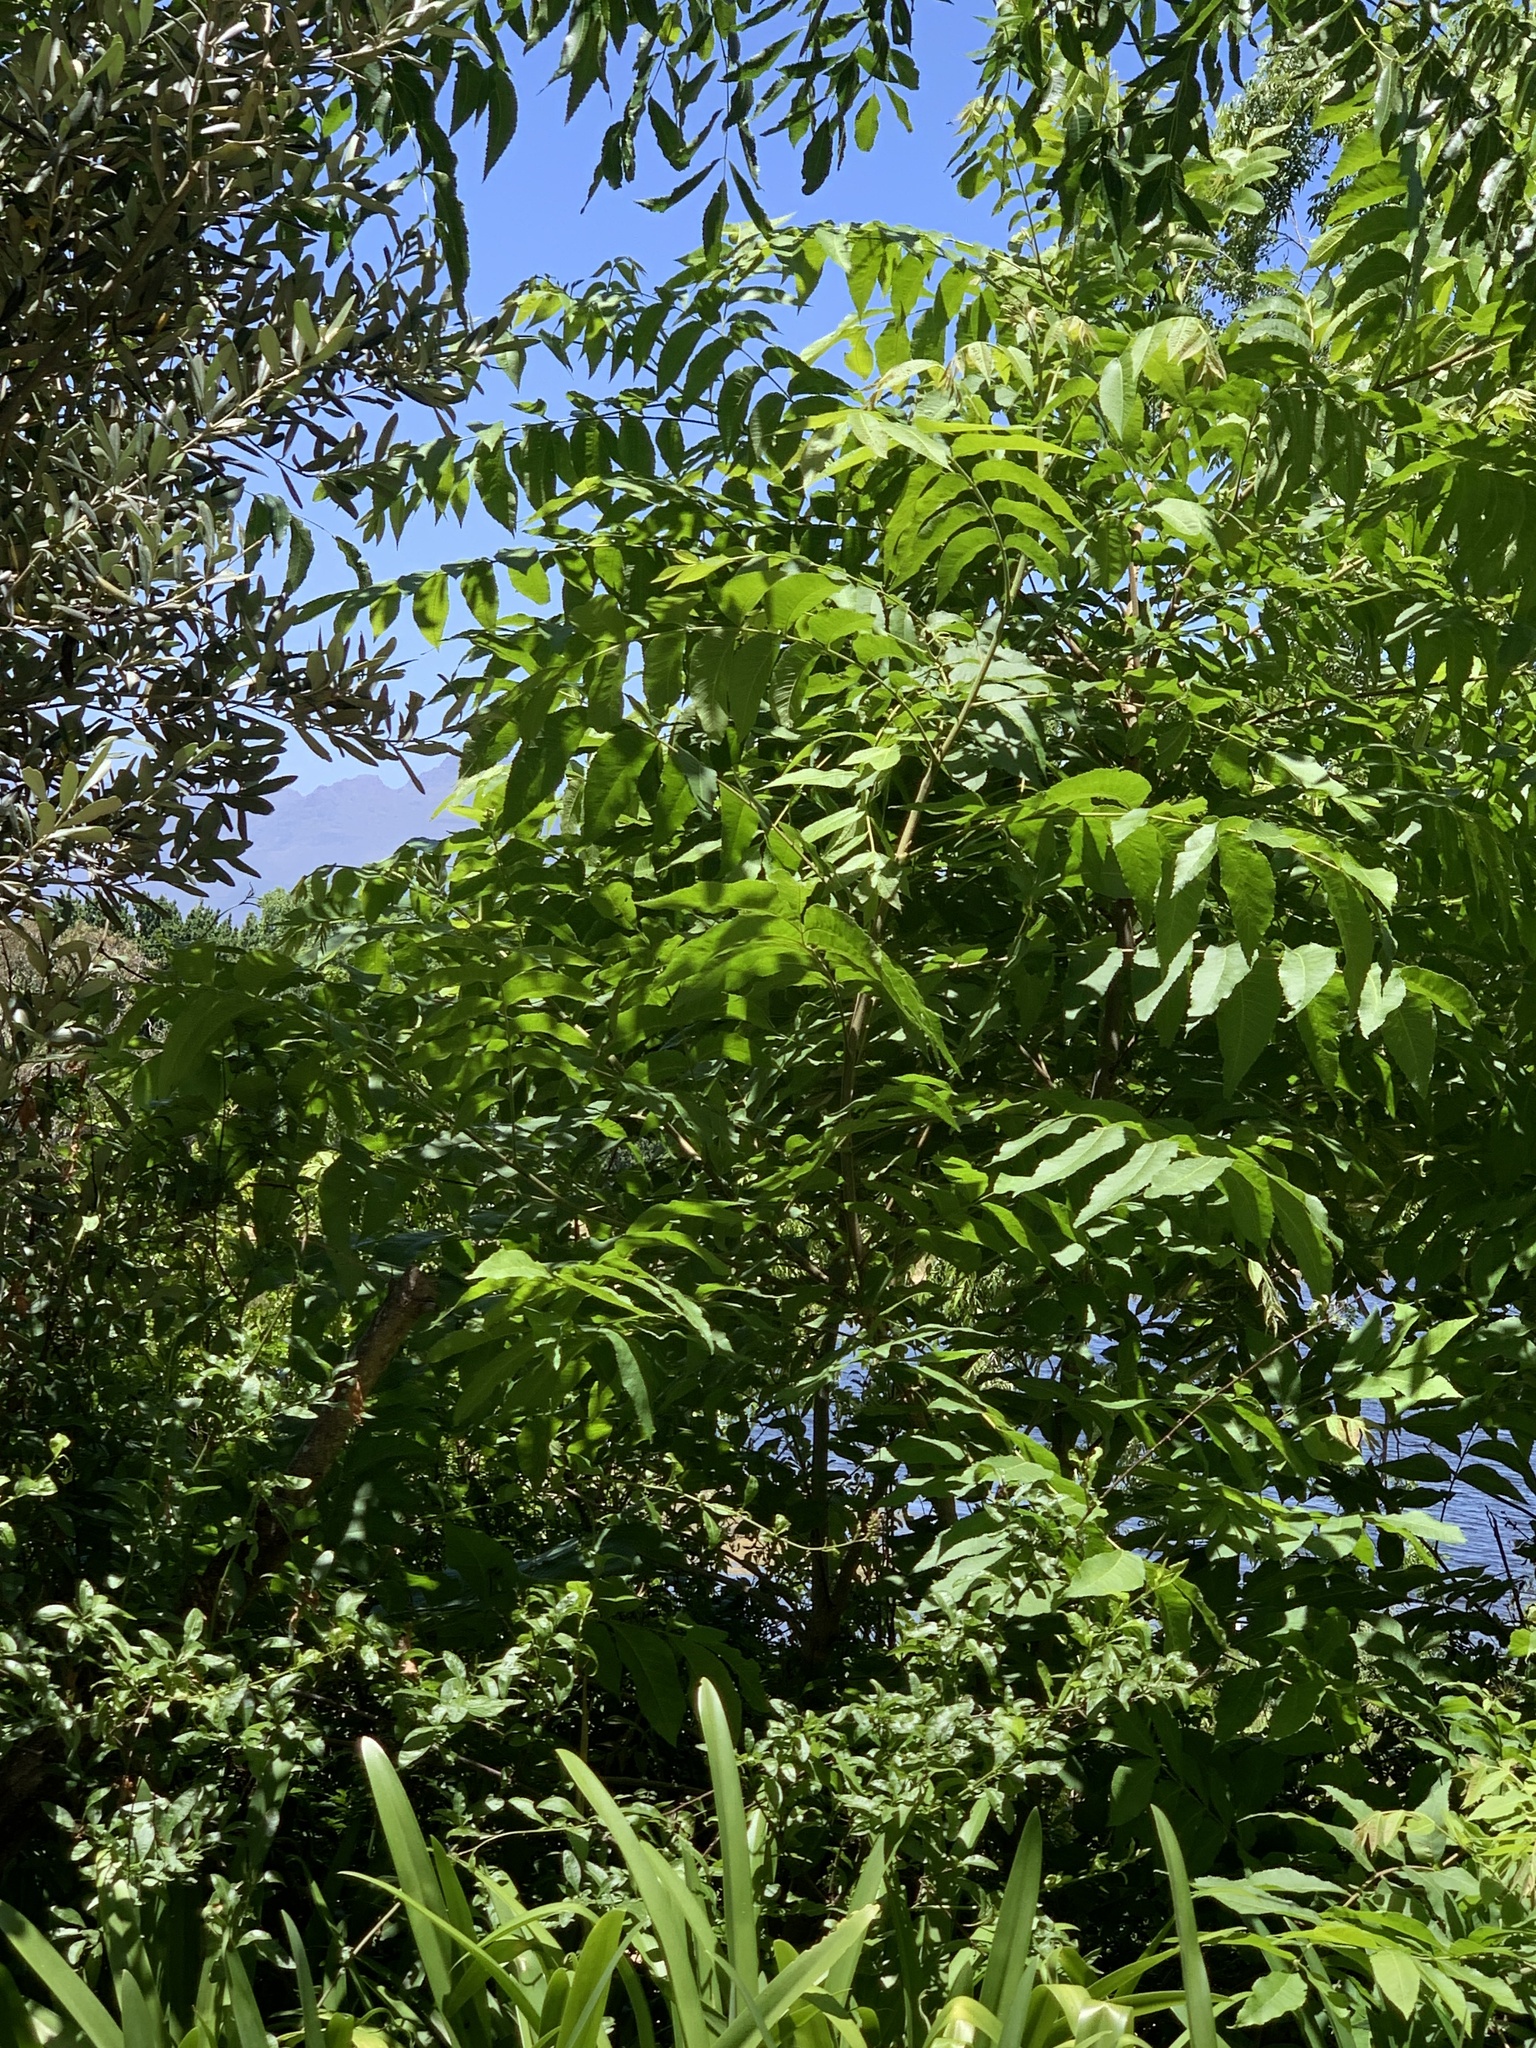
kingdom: Plantae
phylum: Tracheophyta
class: Magnoliopsida
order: Fagales
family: Juglandaceae
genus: Carya
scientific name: Carya illinoinensis
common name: Pecan
